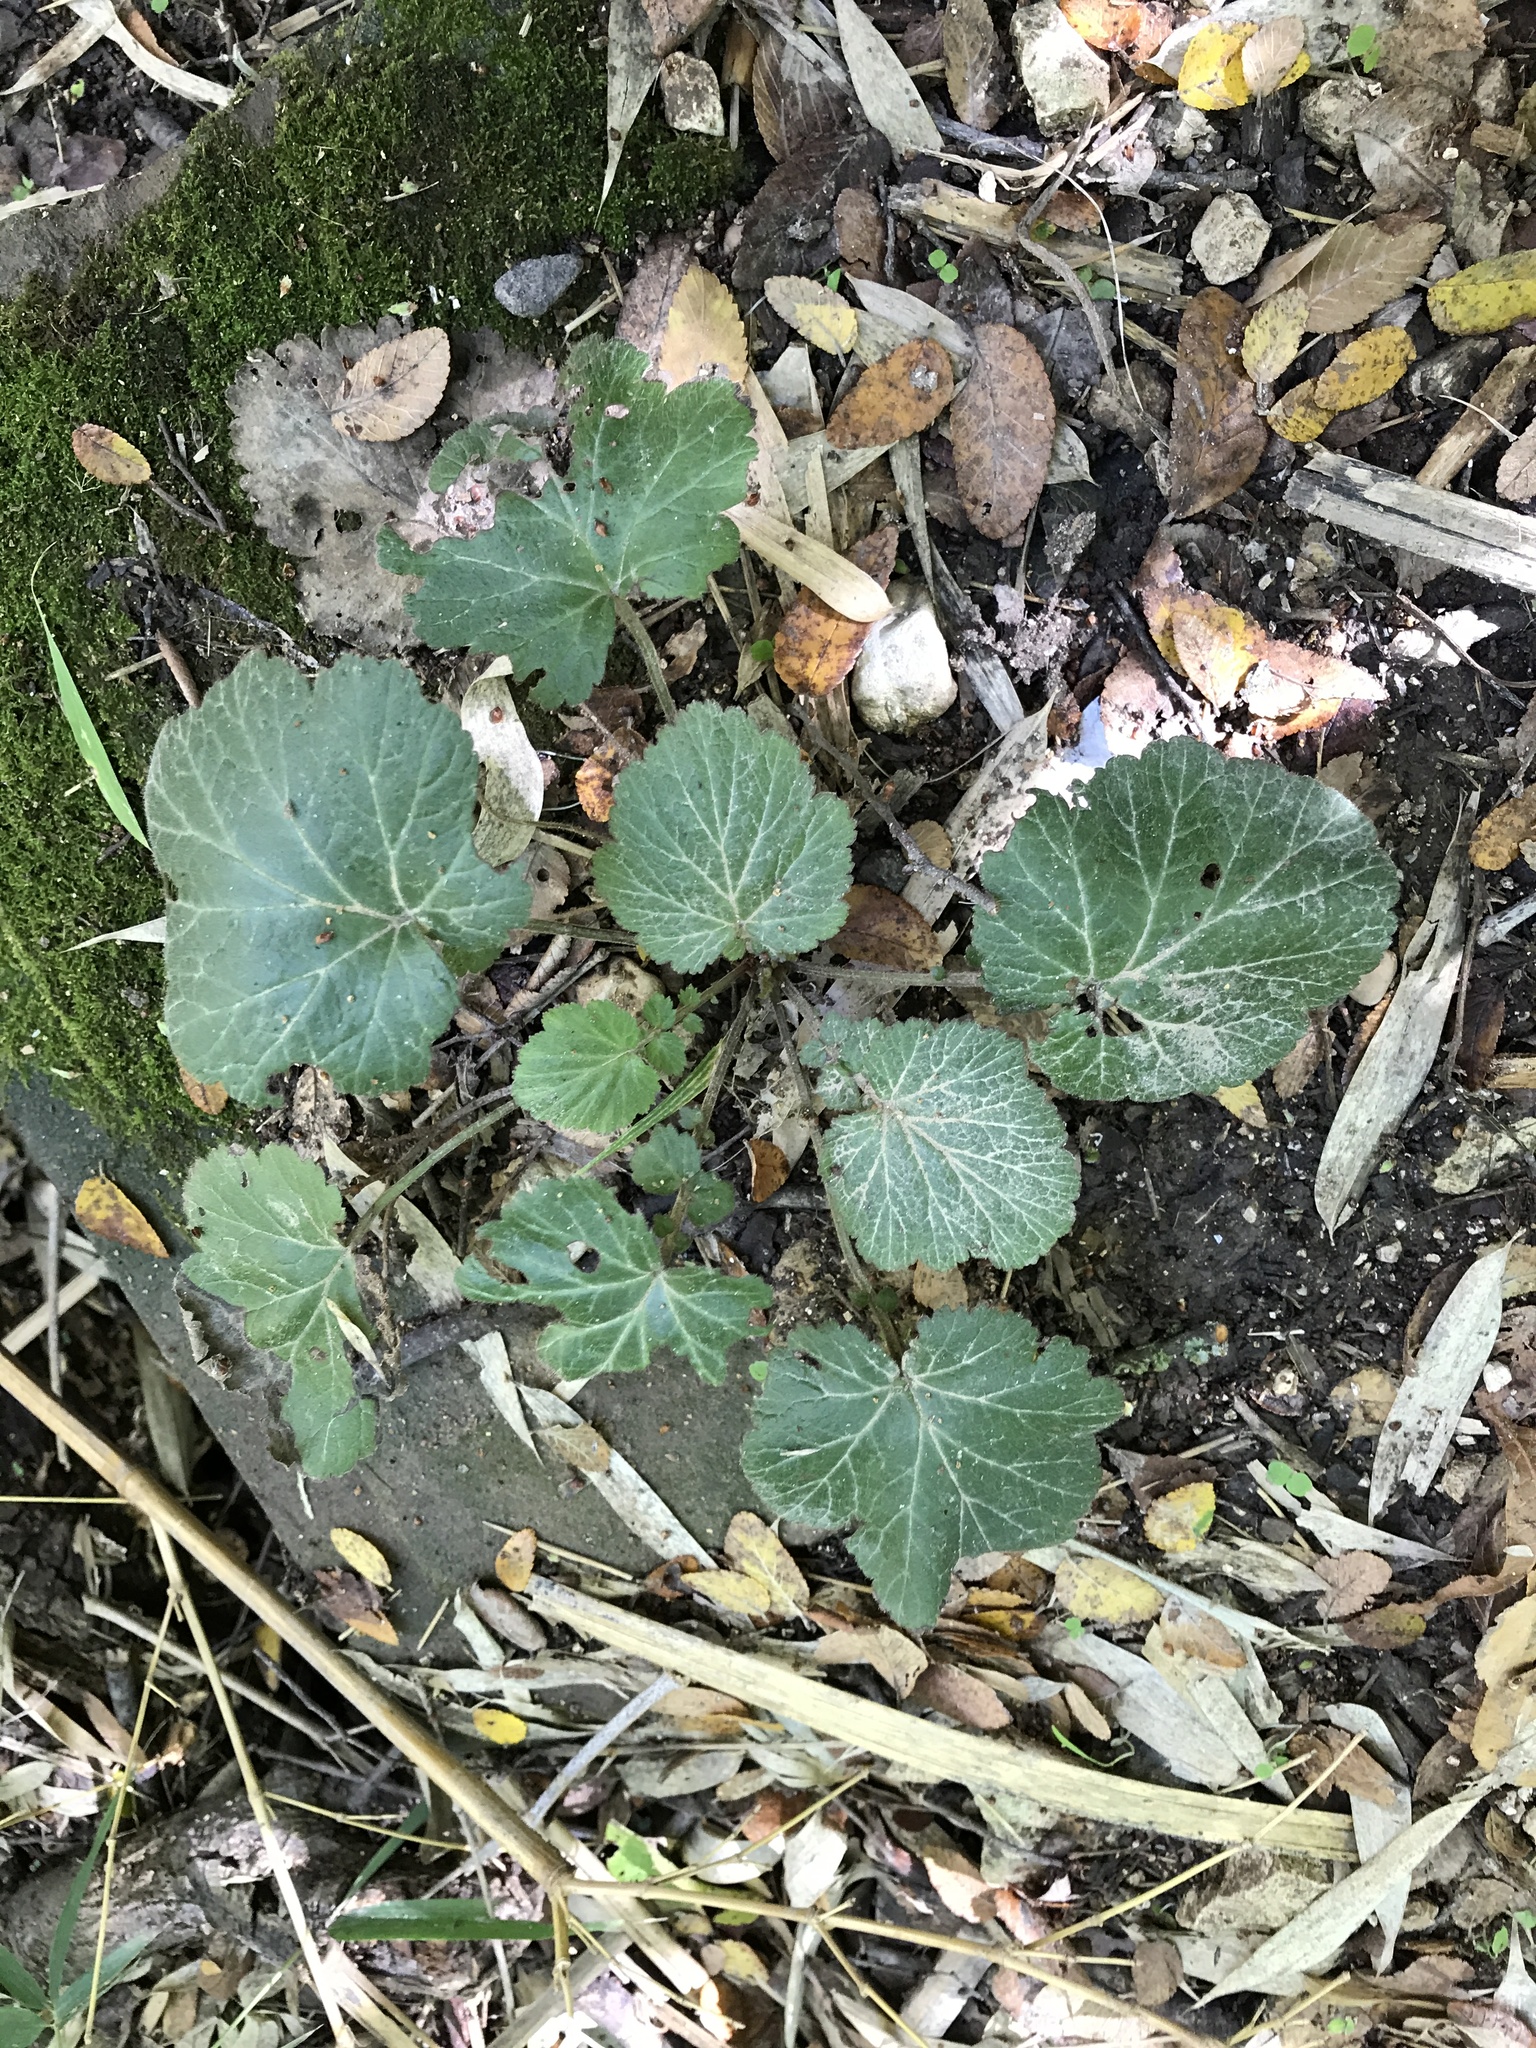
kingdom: Plantae
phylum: Tracheophyta
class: Magnoliopsida
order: Rosales
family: Rosaceae
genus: Geum
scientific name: Geum canadense
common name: White avens
